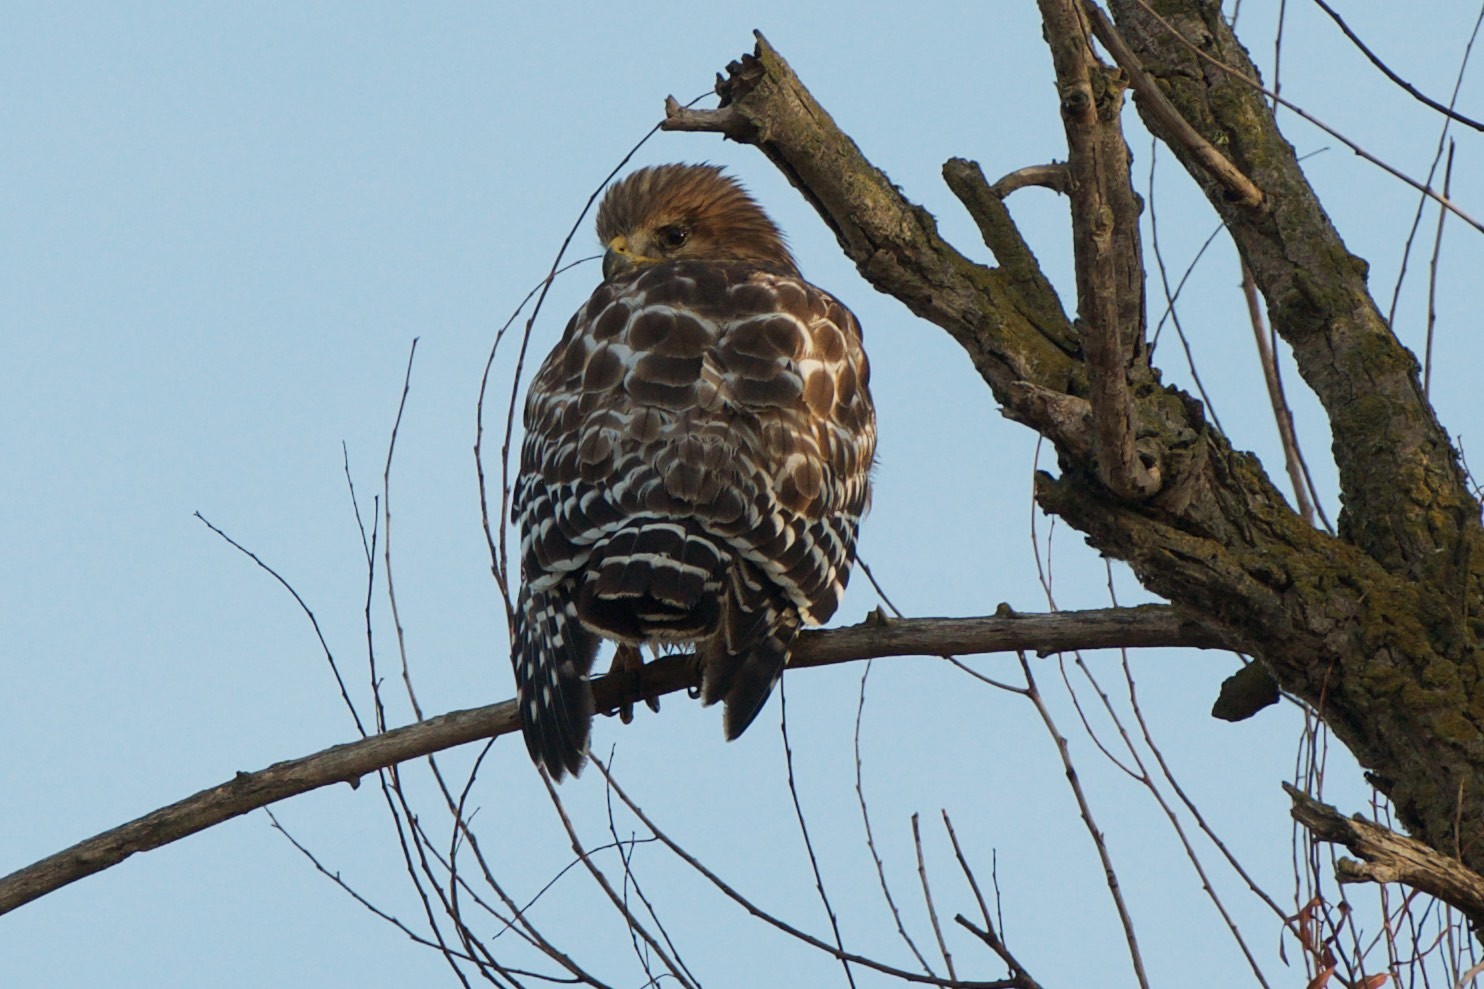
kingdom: Animalia
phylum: Chordata
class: Aves
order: Accipitriformes
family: Accipitridae
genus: Buteo
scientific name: Buteo lineatus
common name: Red-shouldered hawk
